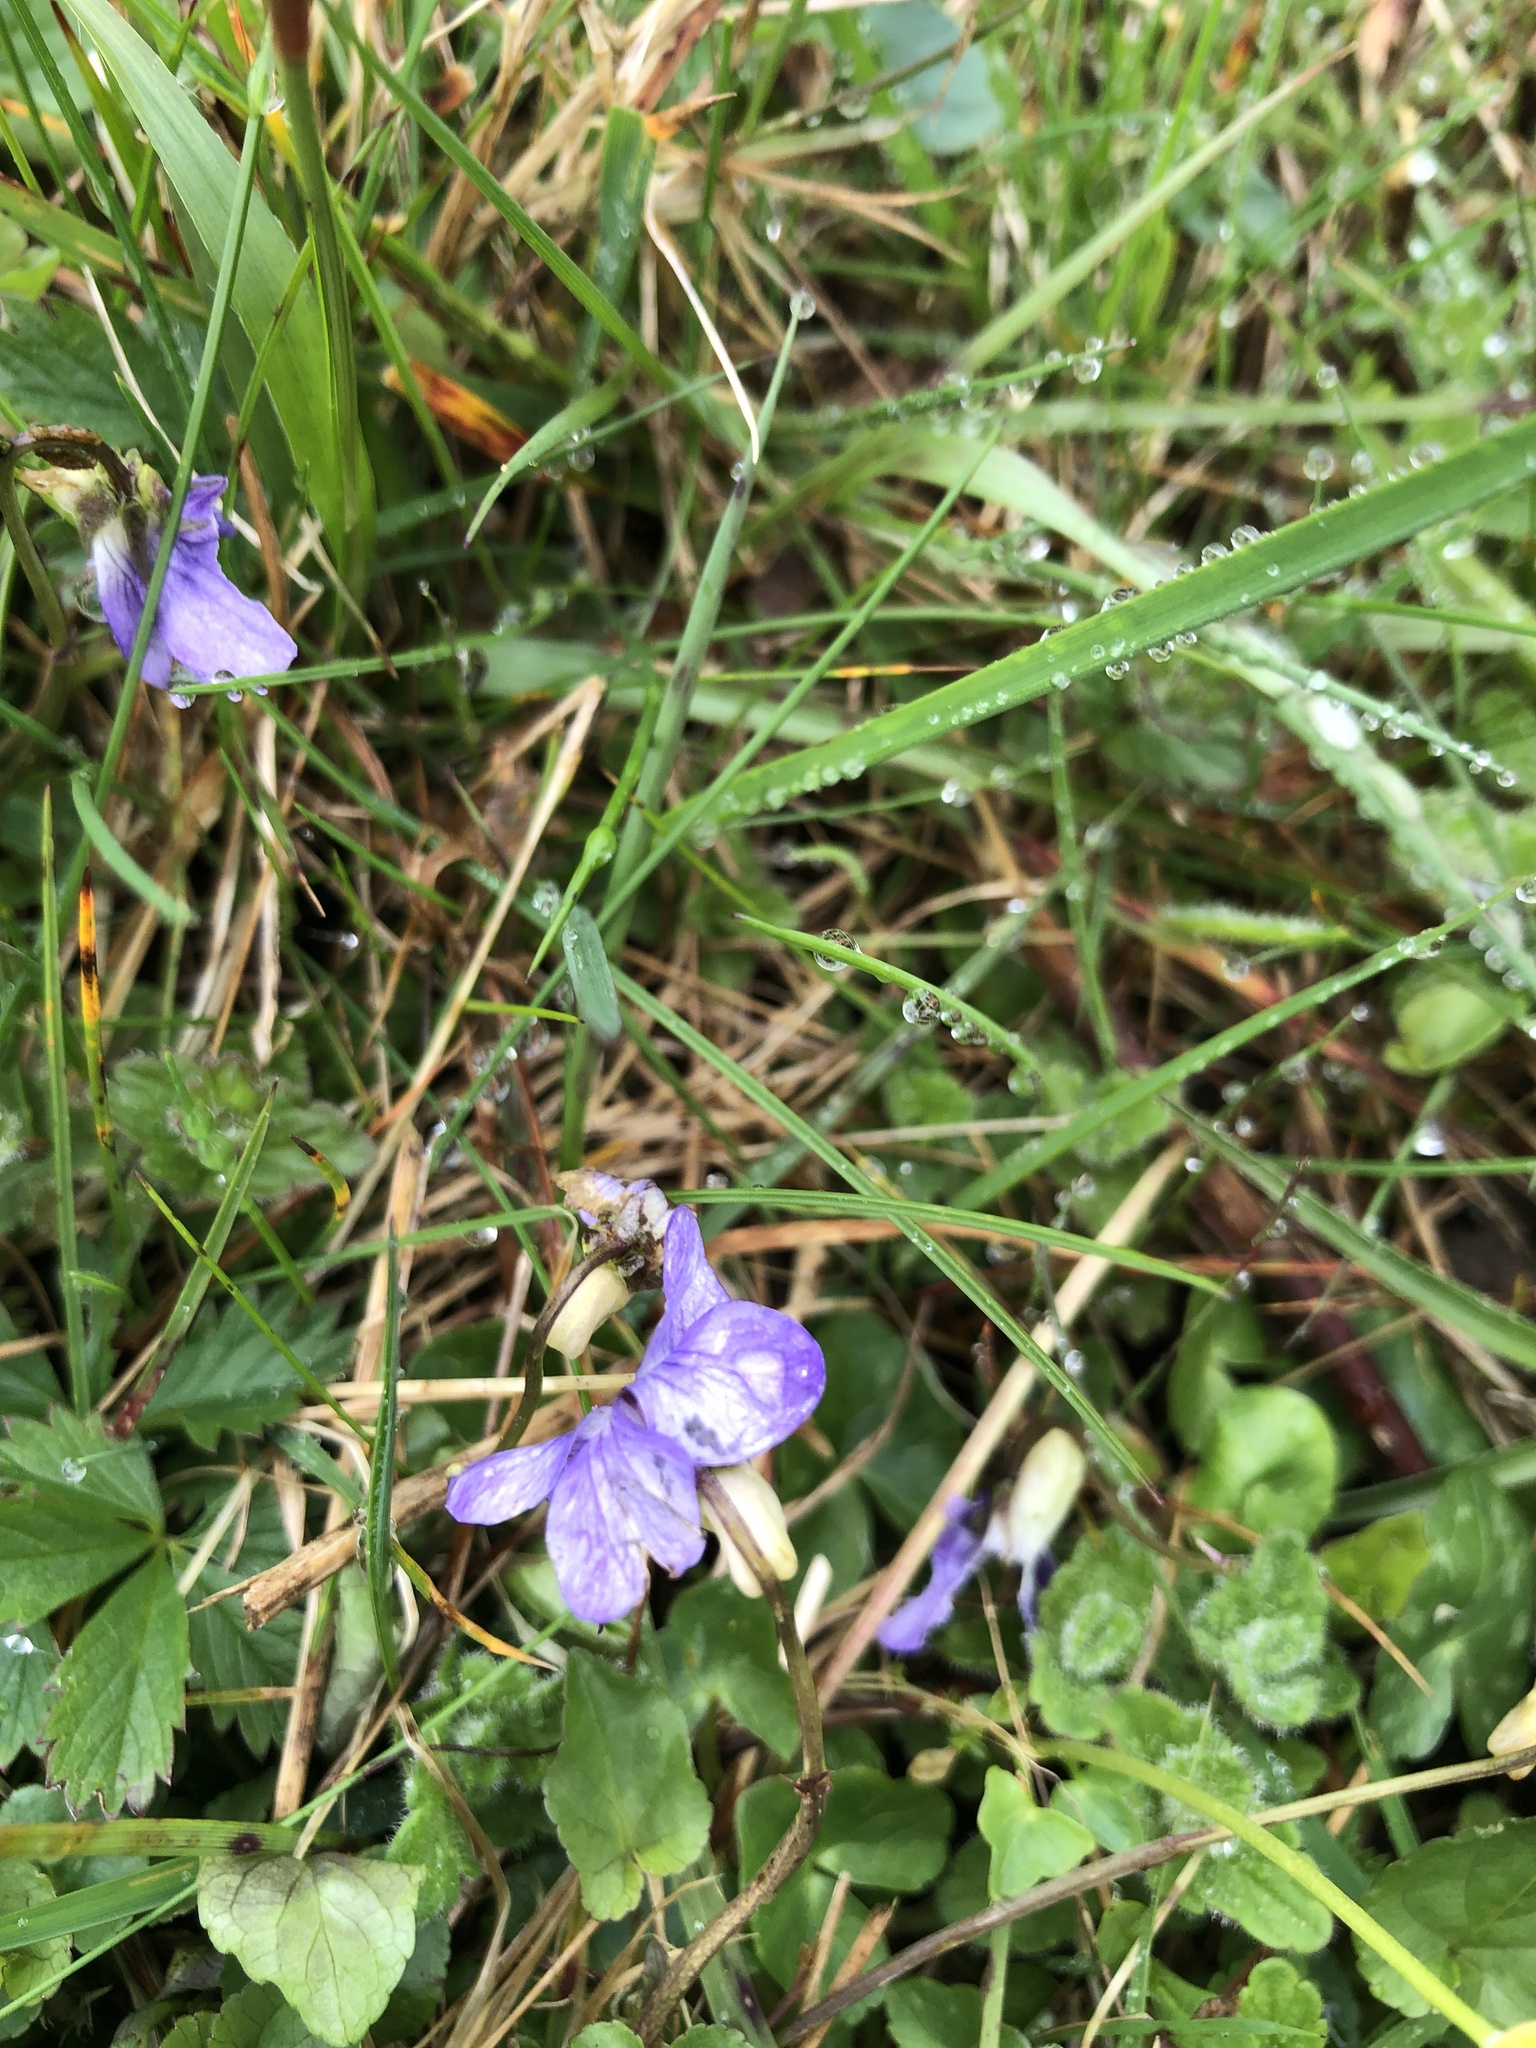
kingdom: Plantae
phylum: Tracheophyta
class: Magnoliopsida
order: Malpighiales
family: Violaceae
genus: Viola
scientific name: Viola riviniana
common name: Common dog-violet
